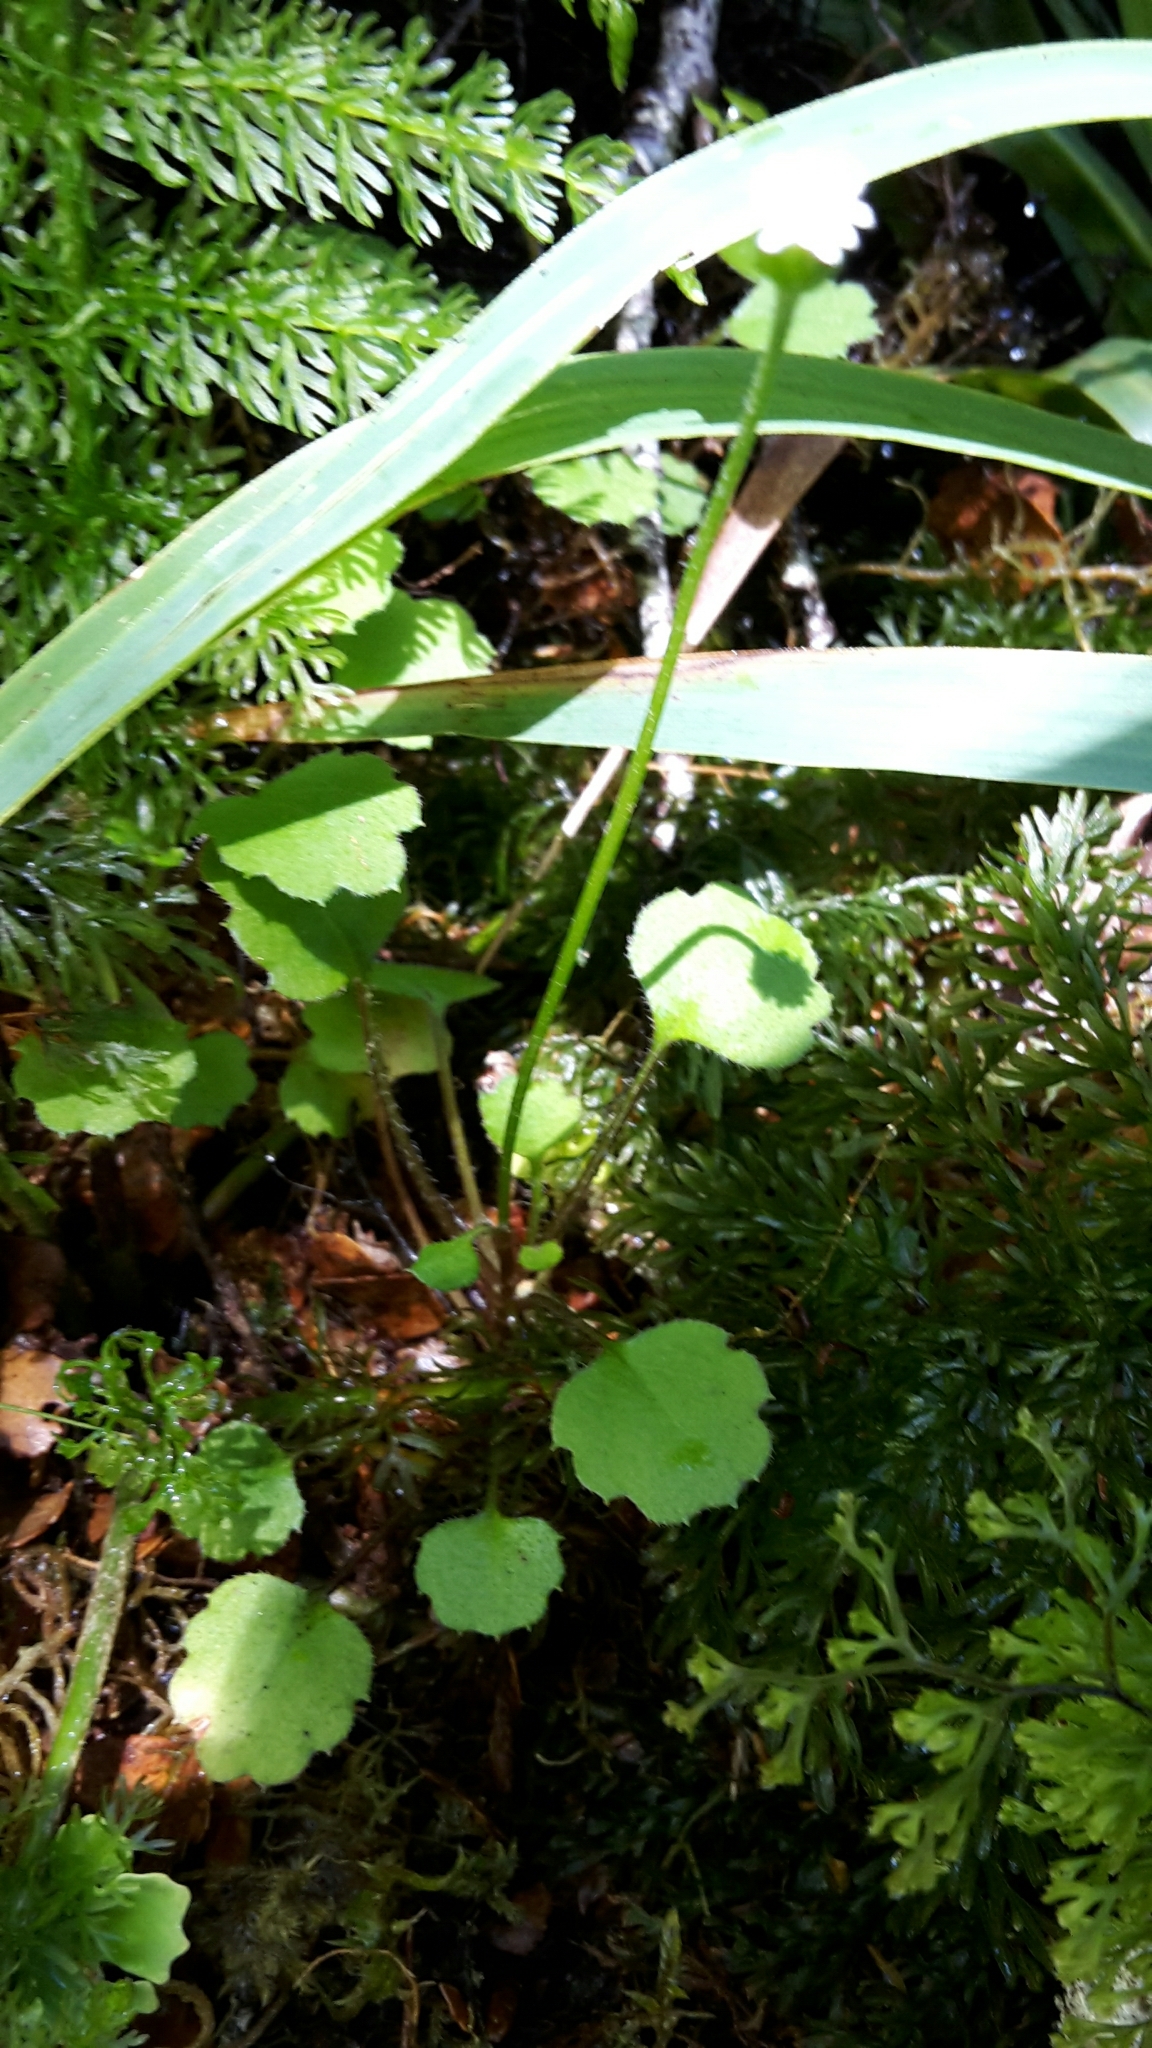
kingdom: Plantae
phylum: Tracheophyta
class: Magnoliopsida
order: Asterales
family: Asteraceae
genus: Lagenophora
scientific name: Lagenophora strangulata
